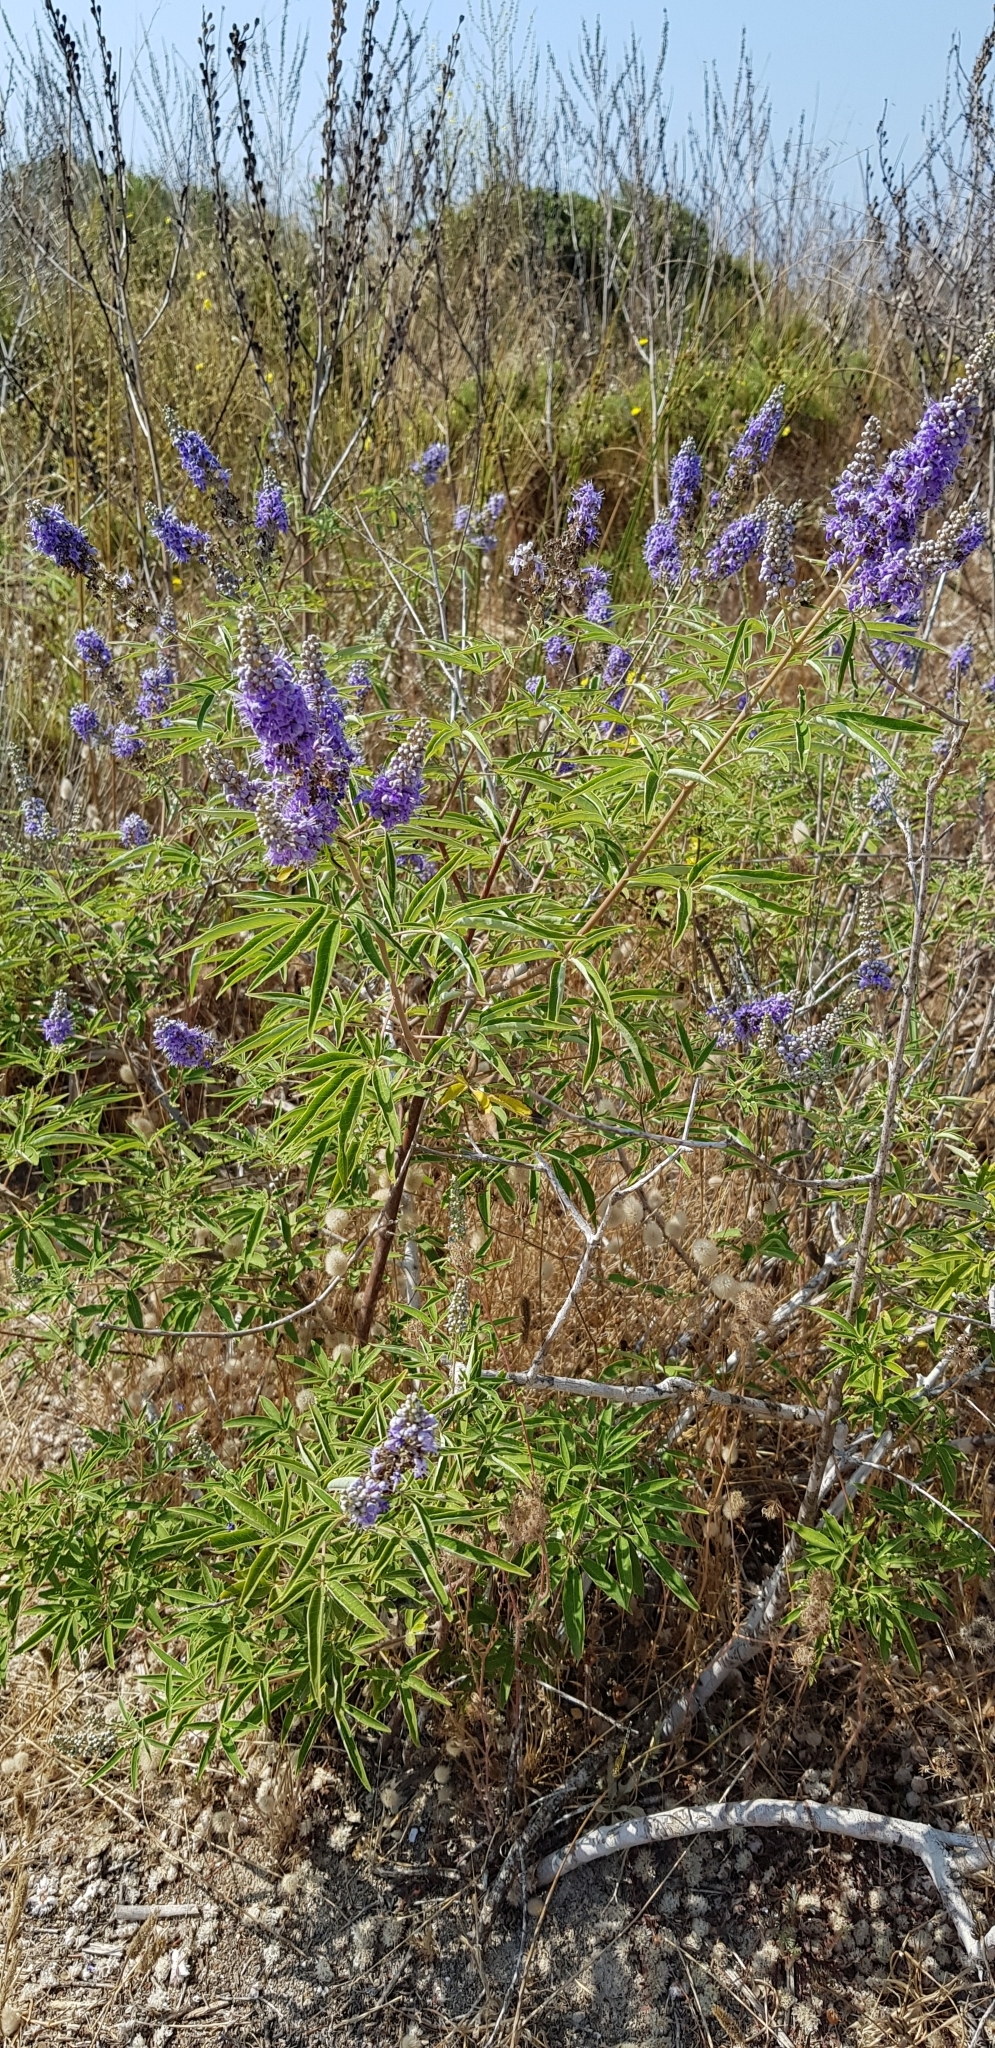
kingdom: Plantae
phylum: Tracheophyta
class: Magnoliopsida
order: Lamiales
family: Lamiaceae
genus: Vitex
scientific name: Vitex agnus-castus
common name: Chasteberry
